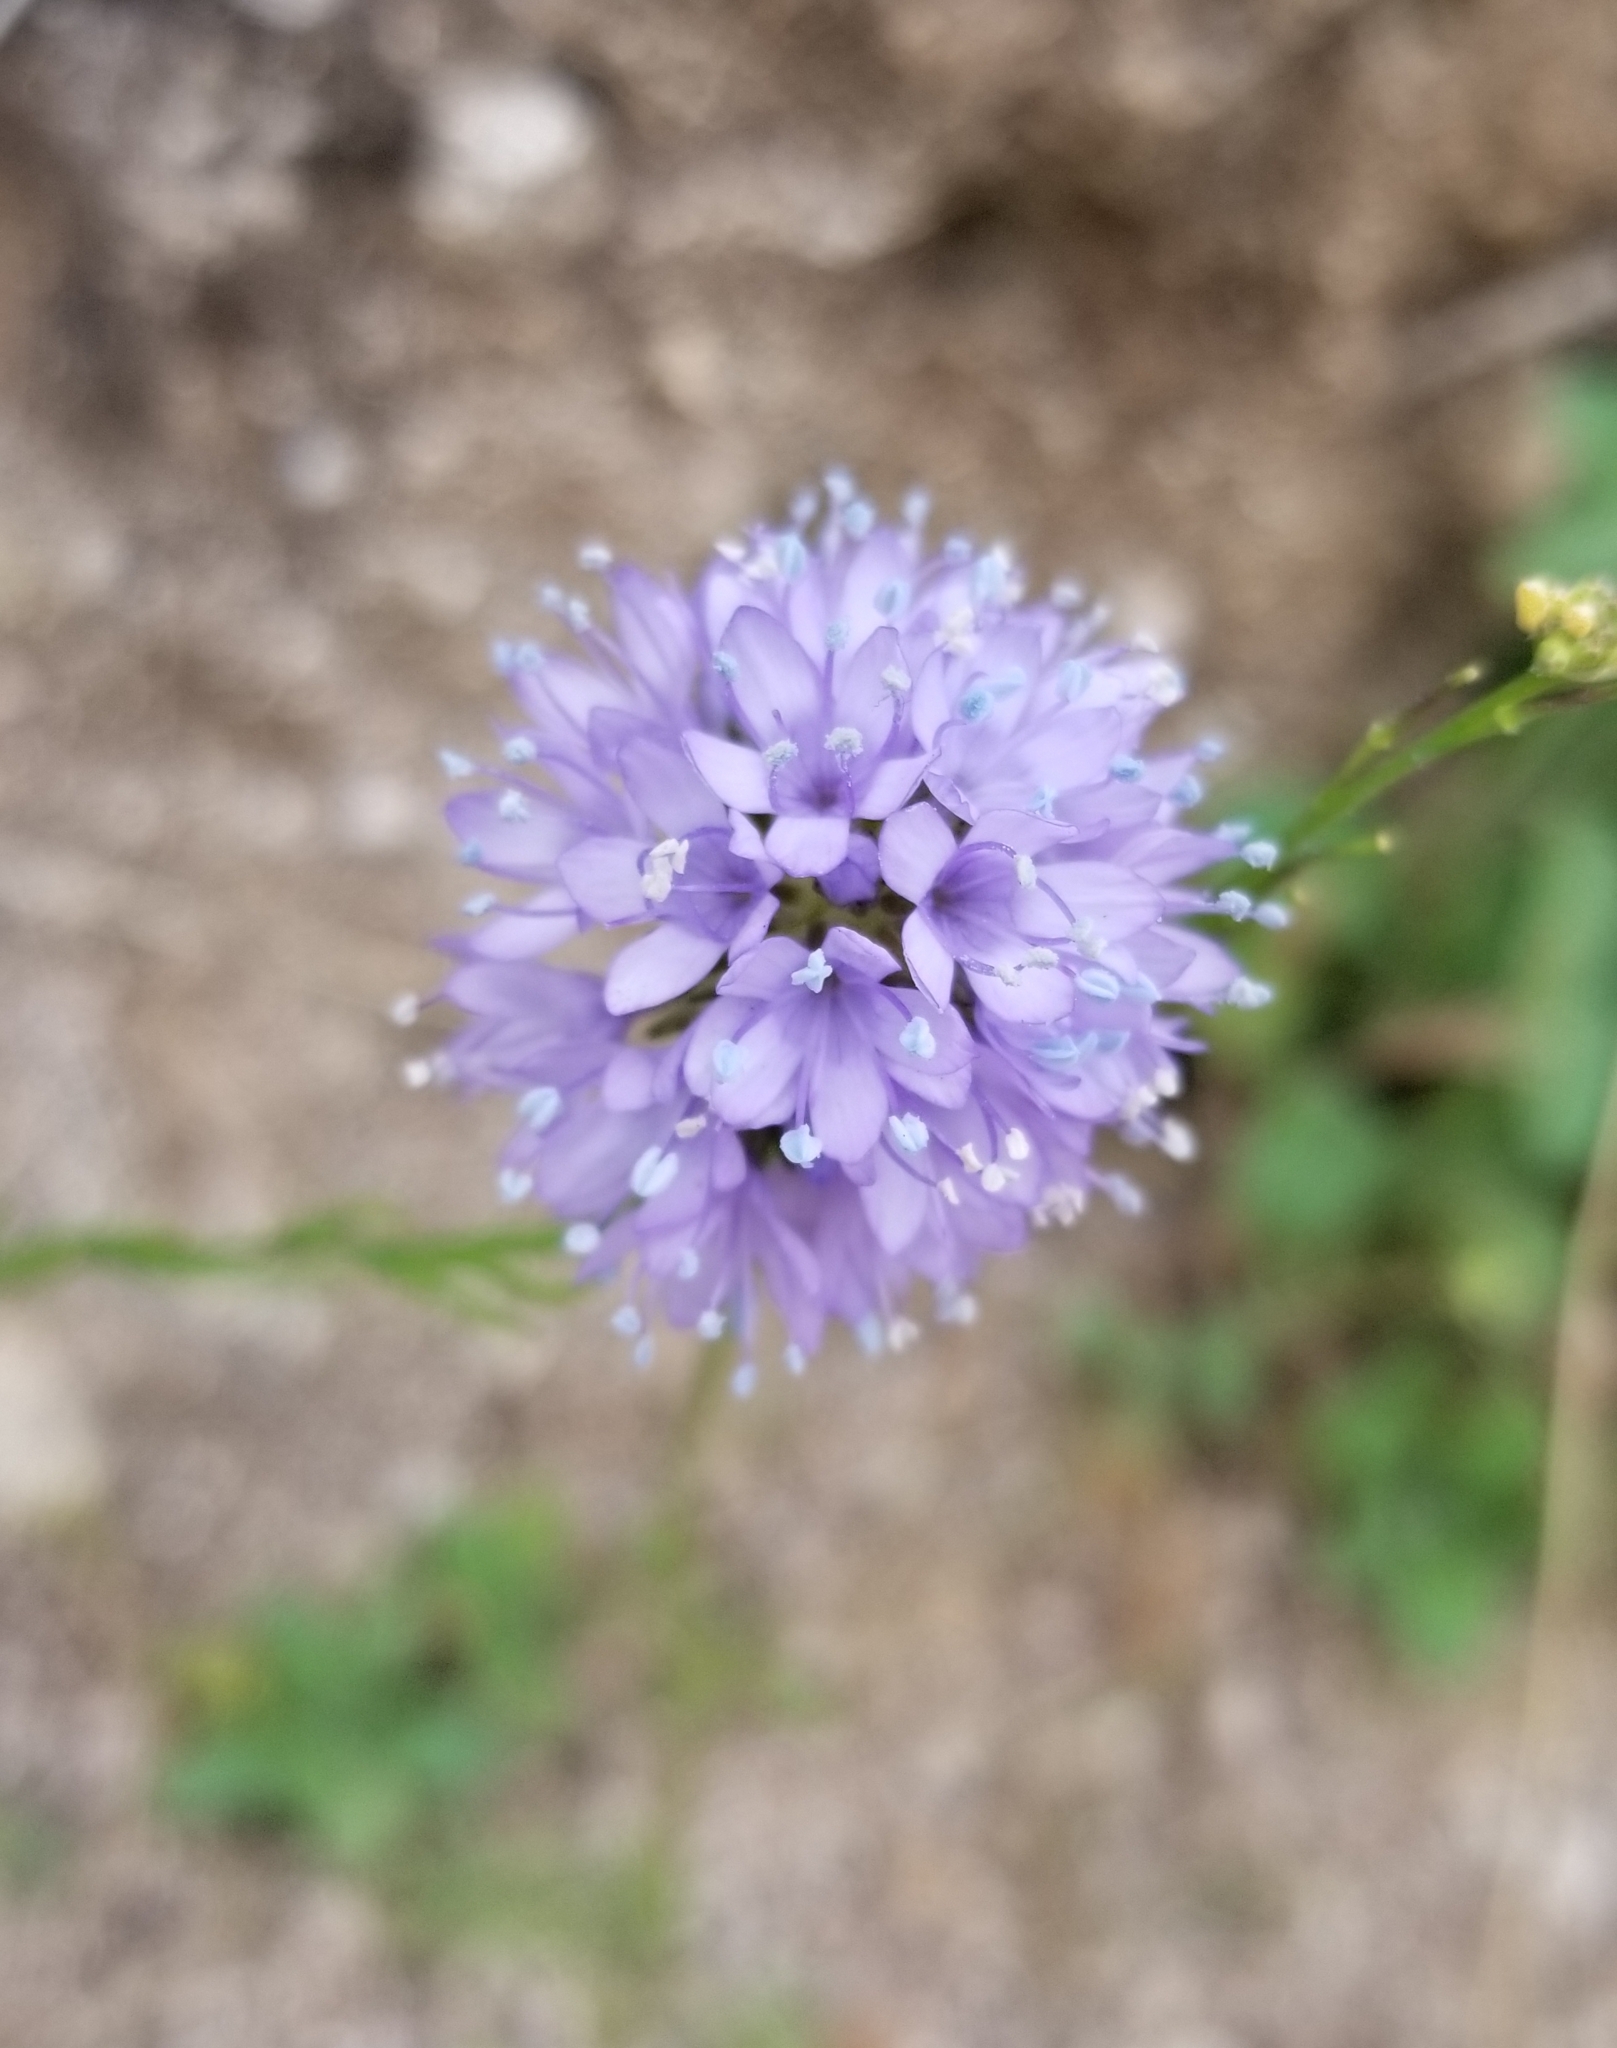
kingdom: Plantae
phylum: Tracheophyta
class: Magnoliopsida
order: Ericales
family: Polemoniaceae
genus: Gilia
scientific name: Gilia capitata
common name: Bluehead gilia
